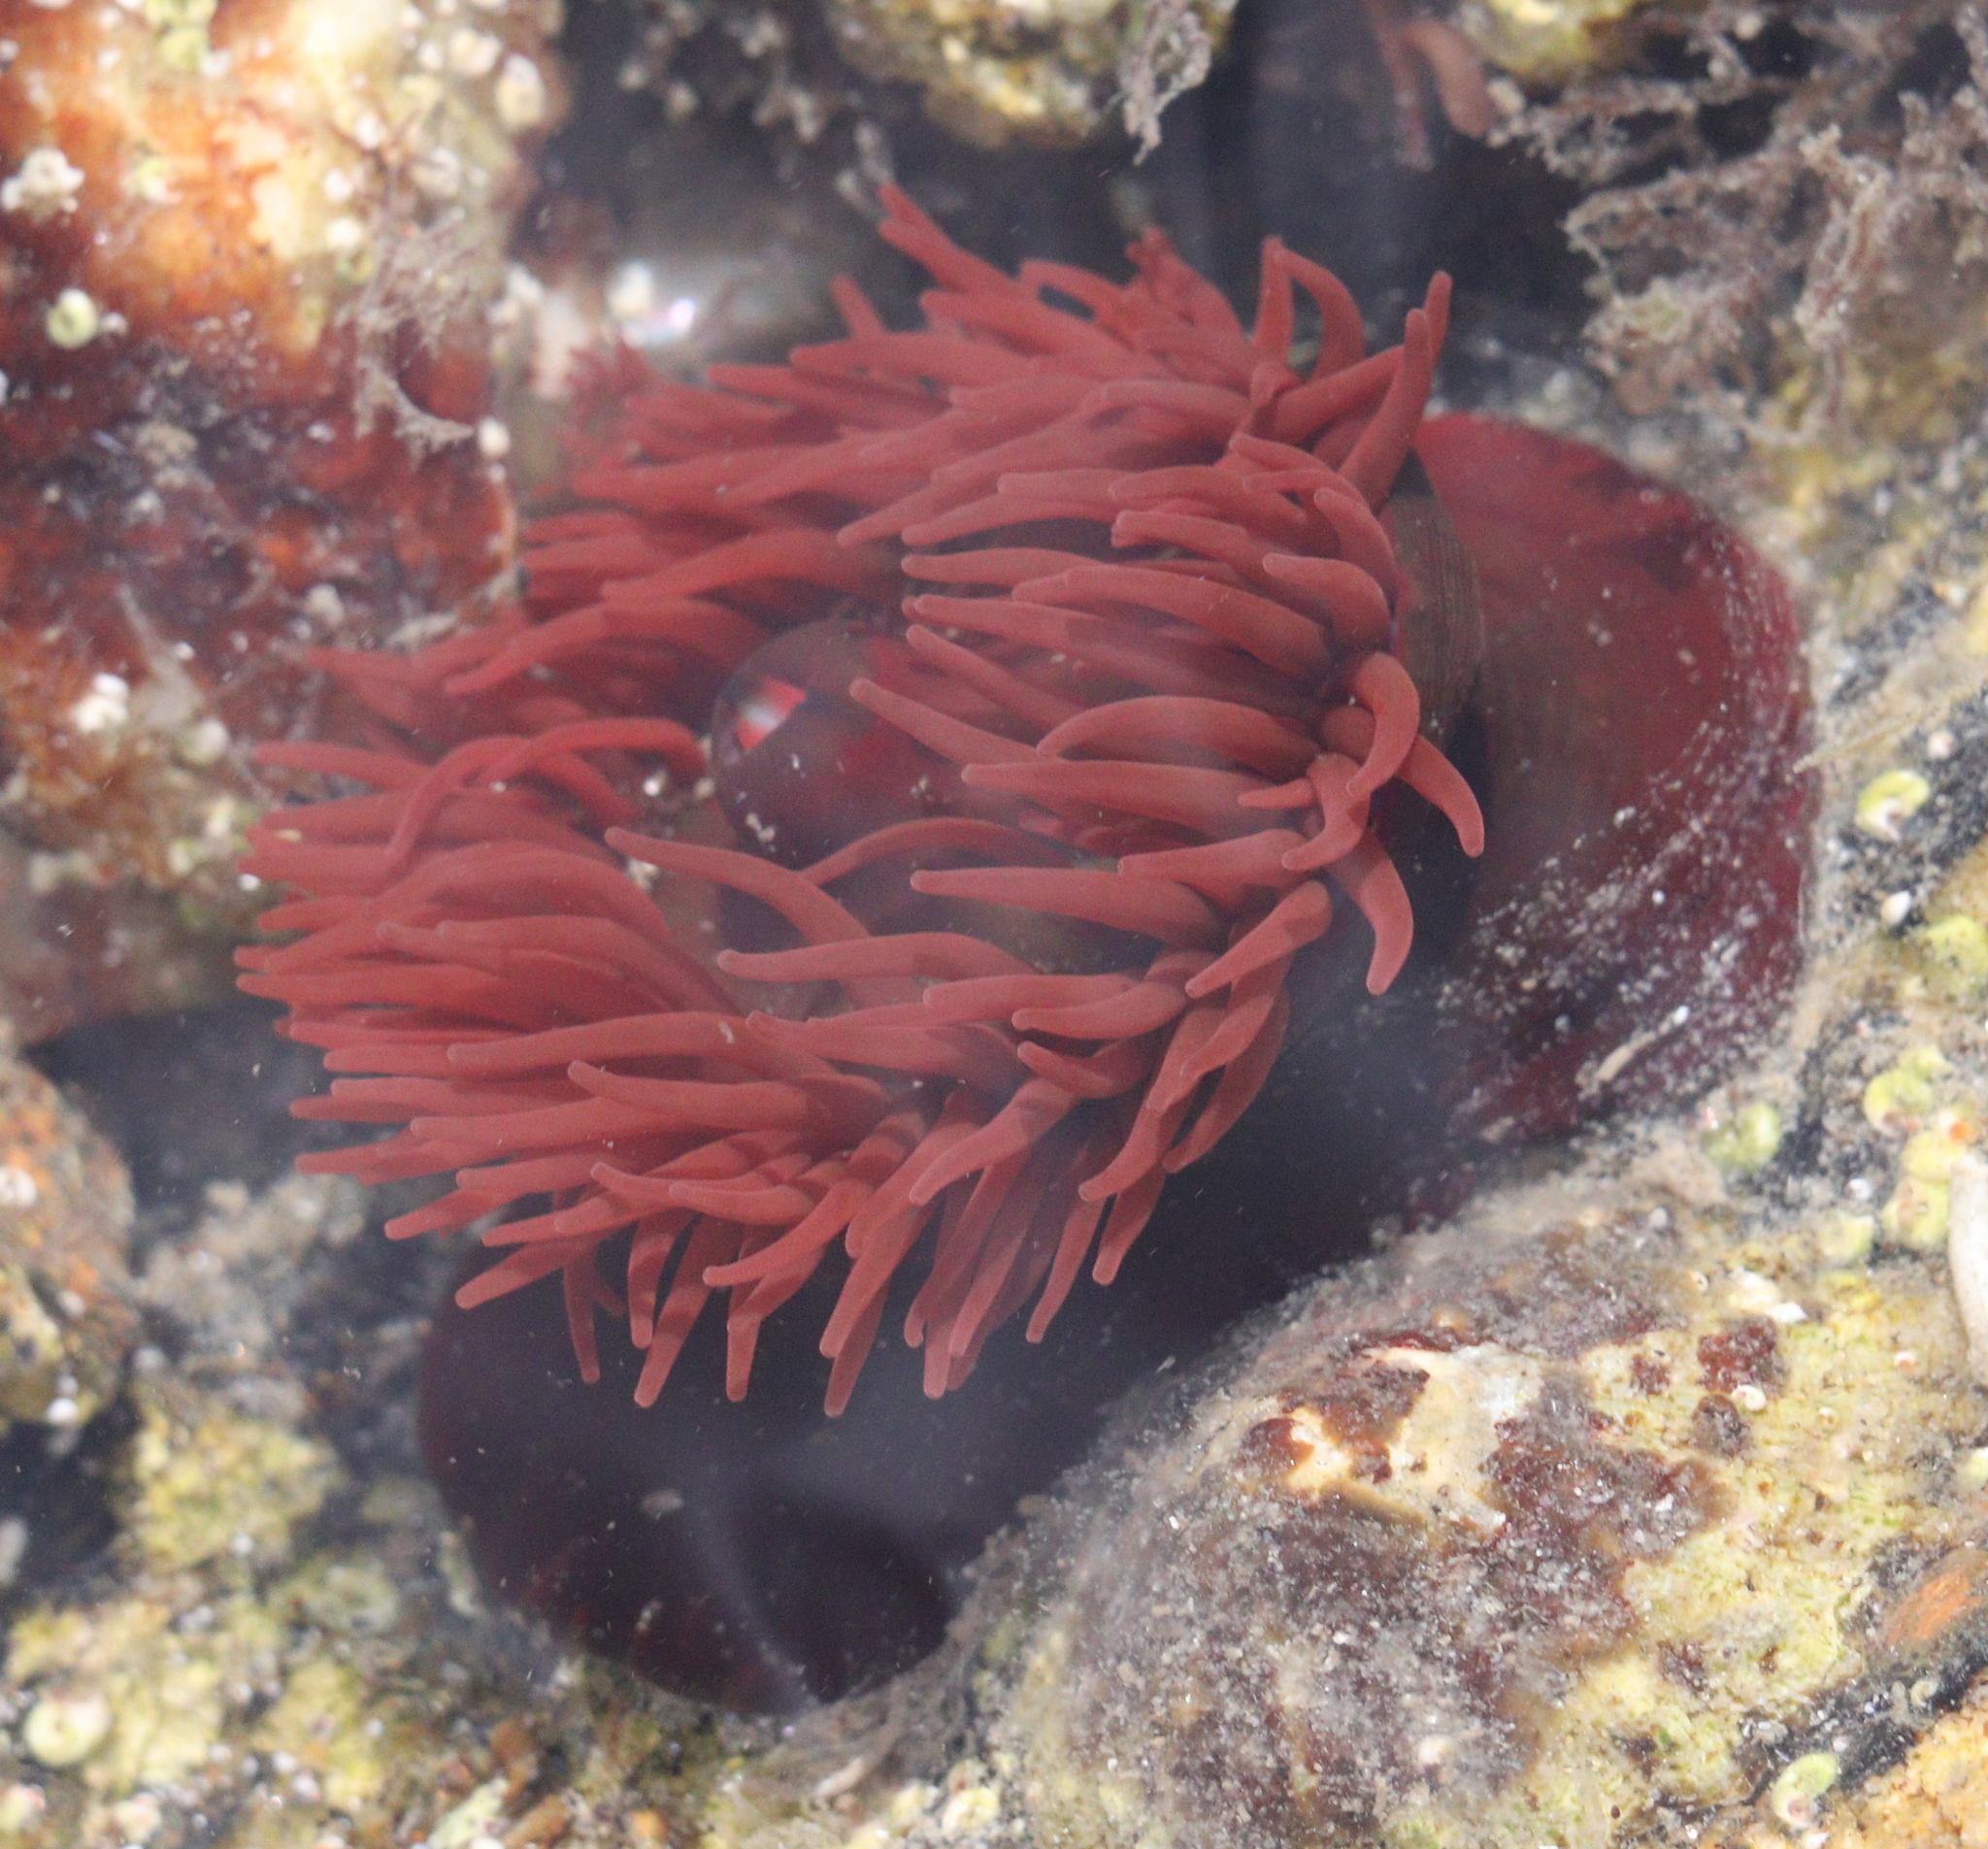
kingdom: Animalia
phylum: Cnidaria
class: Anthozoa
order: Actiniaria
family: Actiniidae
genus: Actinia
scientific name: Actinia equina
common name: Beadlet anemone
